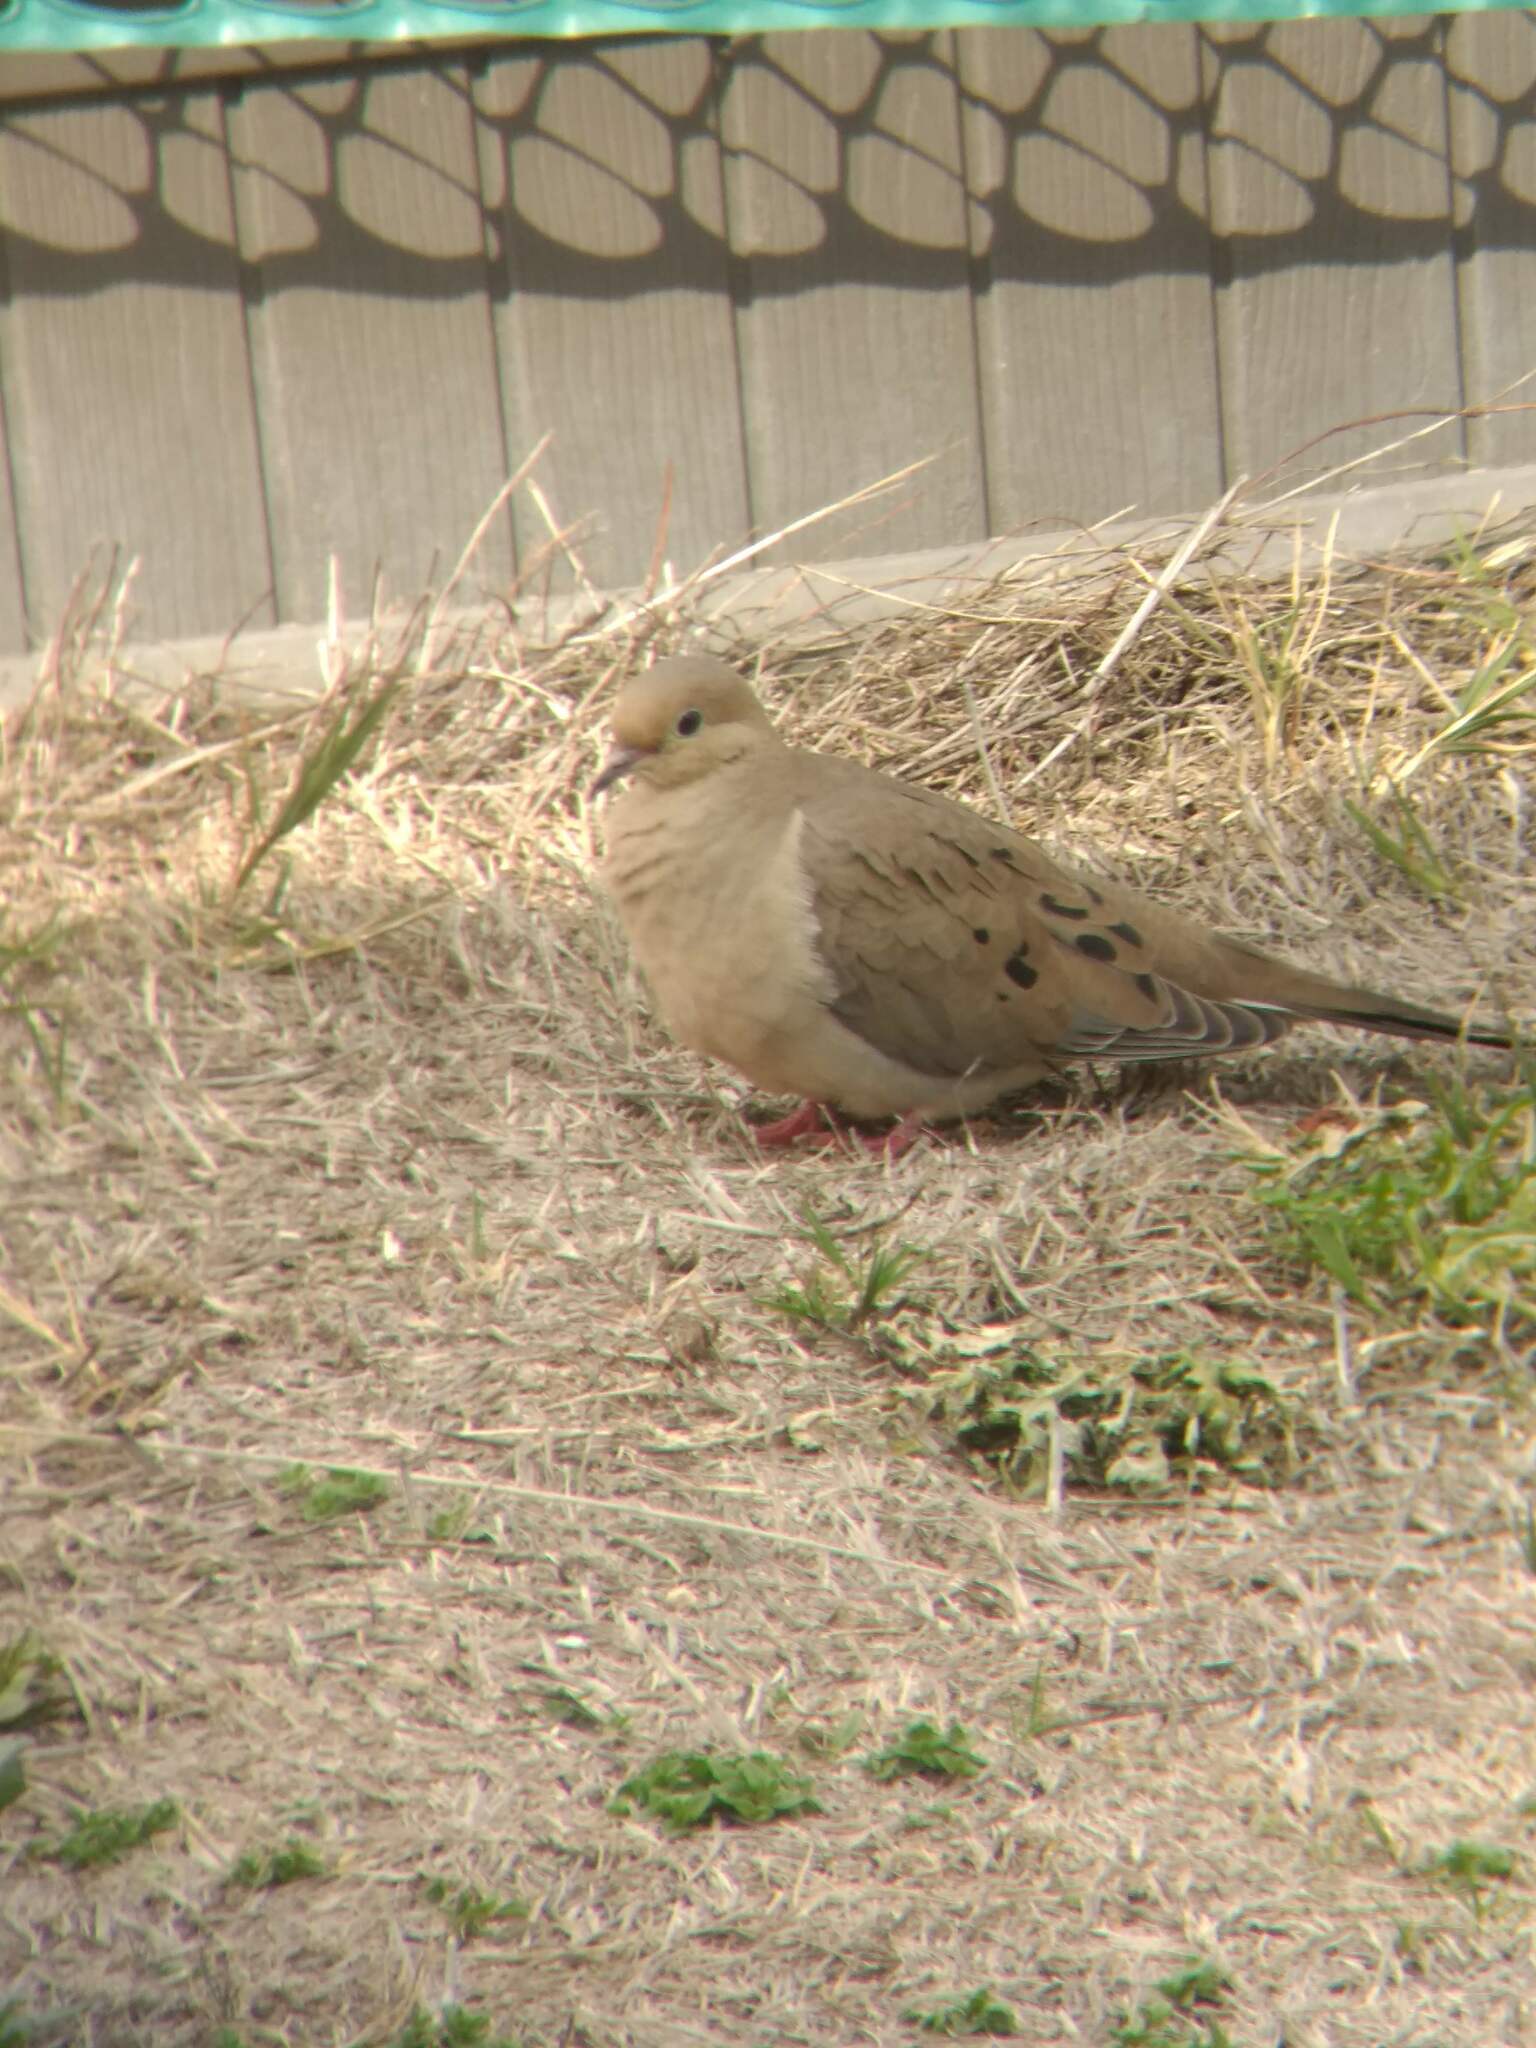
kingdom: Animalia
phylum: Chordata
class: Aves
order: Columbiformes
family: Columbidae
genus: Zenaida
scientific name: Zenaida macroura
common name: Mourning dove
